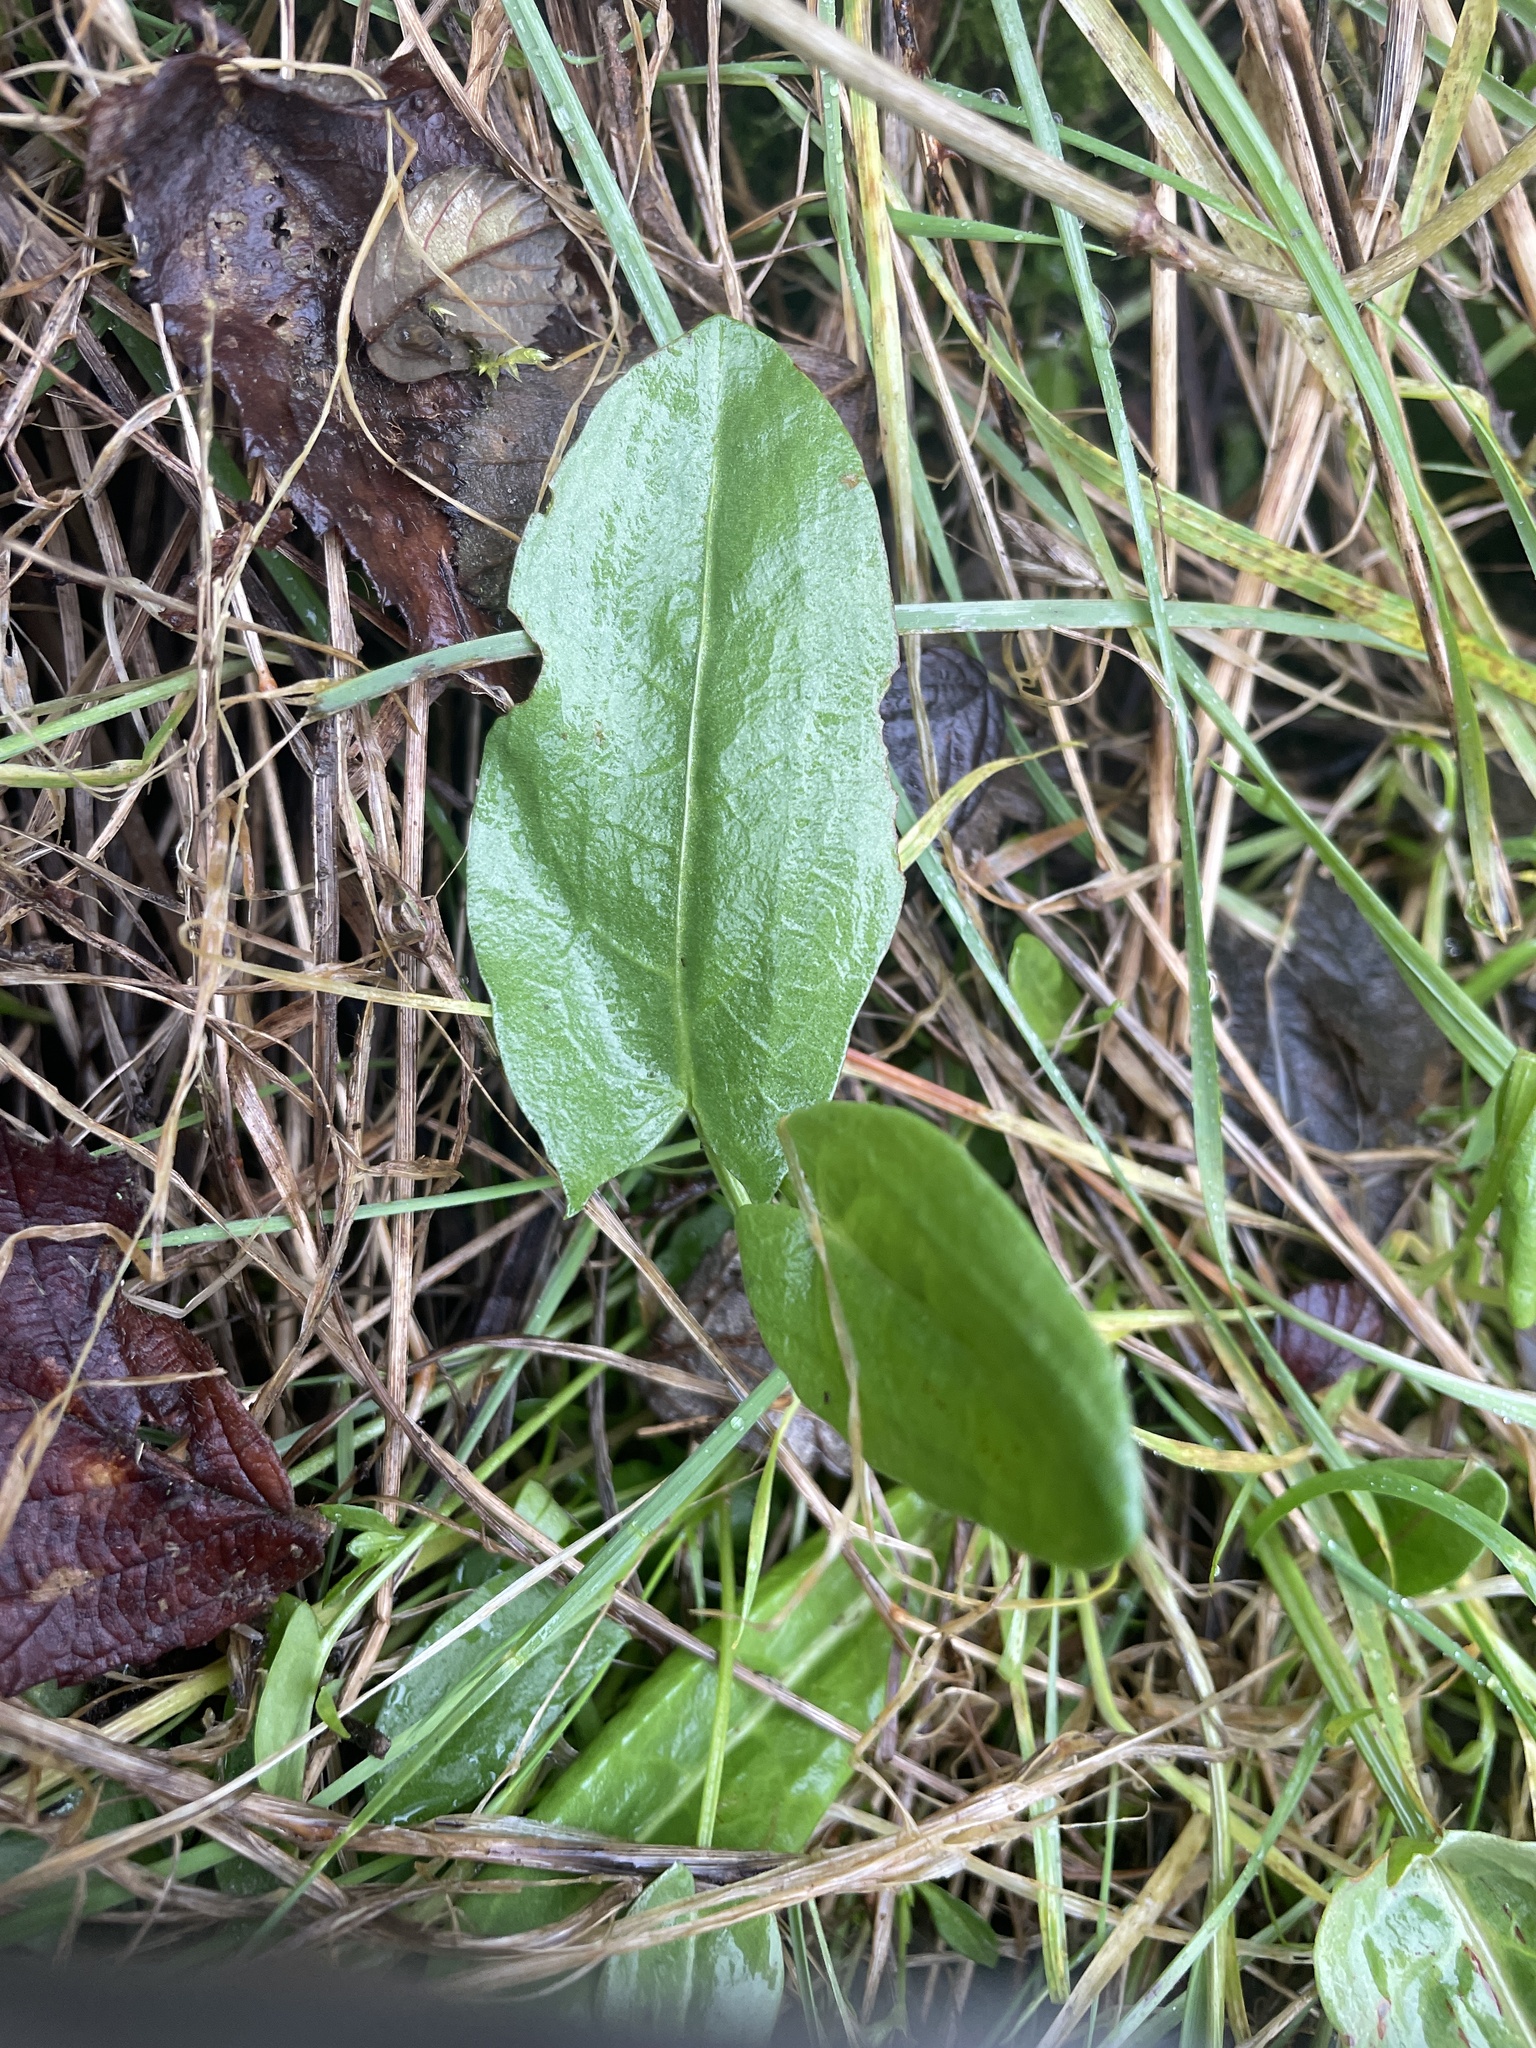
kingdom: Plantae
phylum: Tracheophyta
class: Magnoliopsida
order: Caryophyllales
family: Polygonaceae
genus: Rumex
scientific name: Rumex acetosa
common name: Garden sorrel
